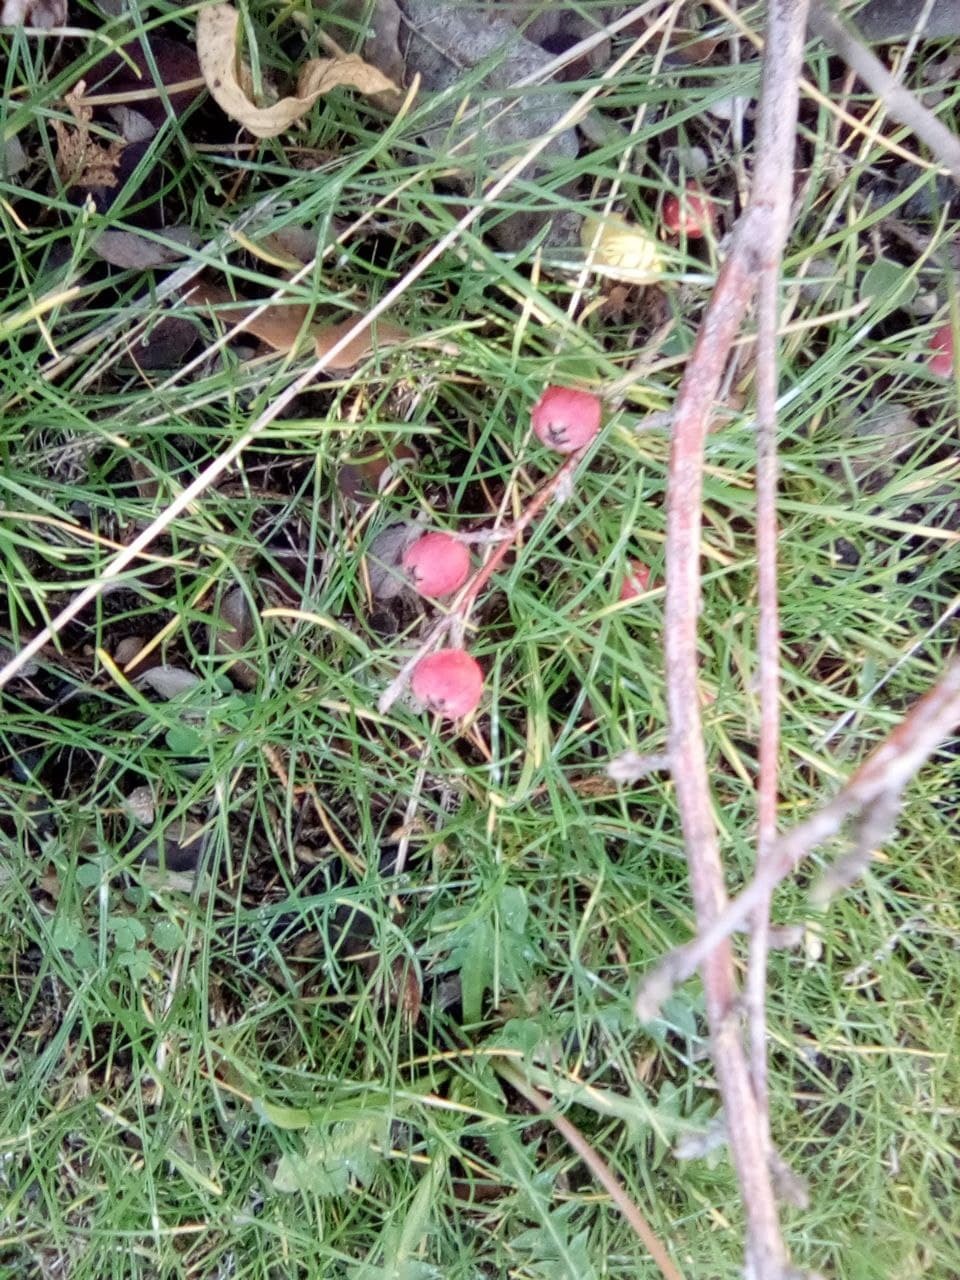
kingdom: Plantae
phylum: Tracheophyta
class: Magnoliopsida
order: Rosales
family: Rosaceae
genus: Cotoneaster
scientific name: Cotoneaster integerrimus
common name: Wild cotoneaster
